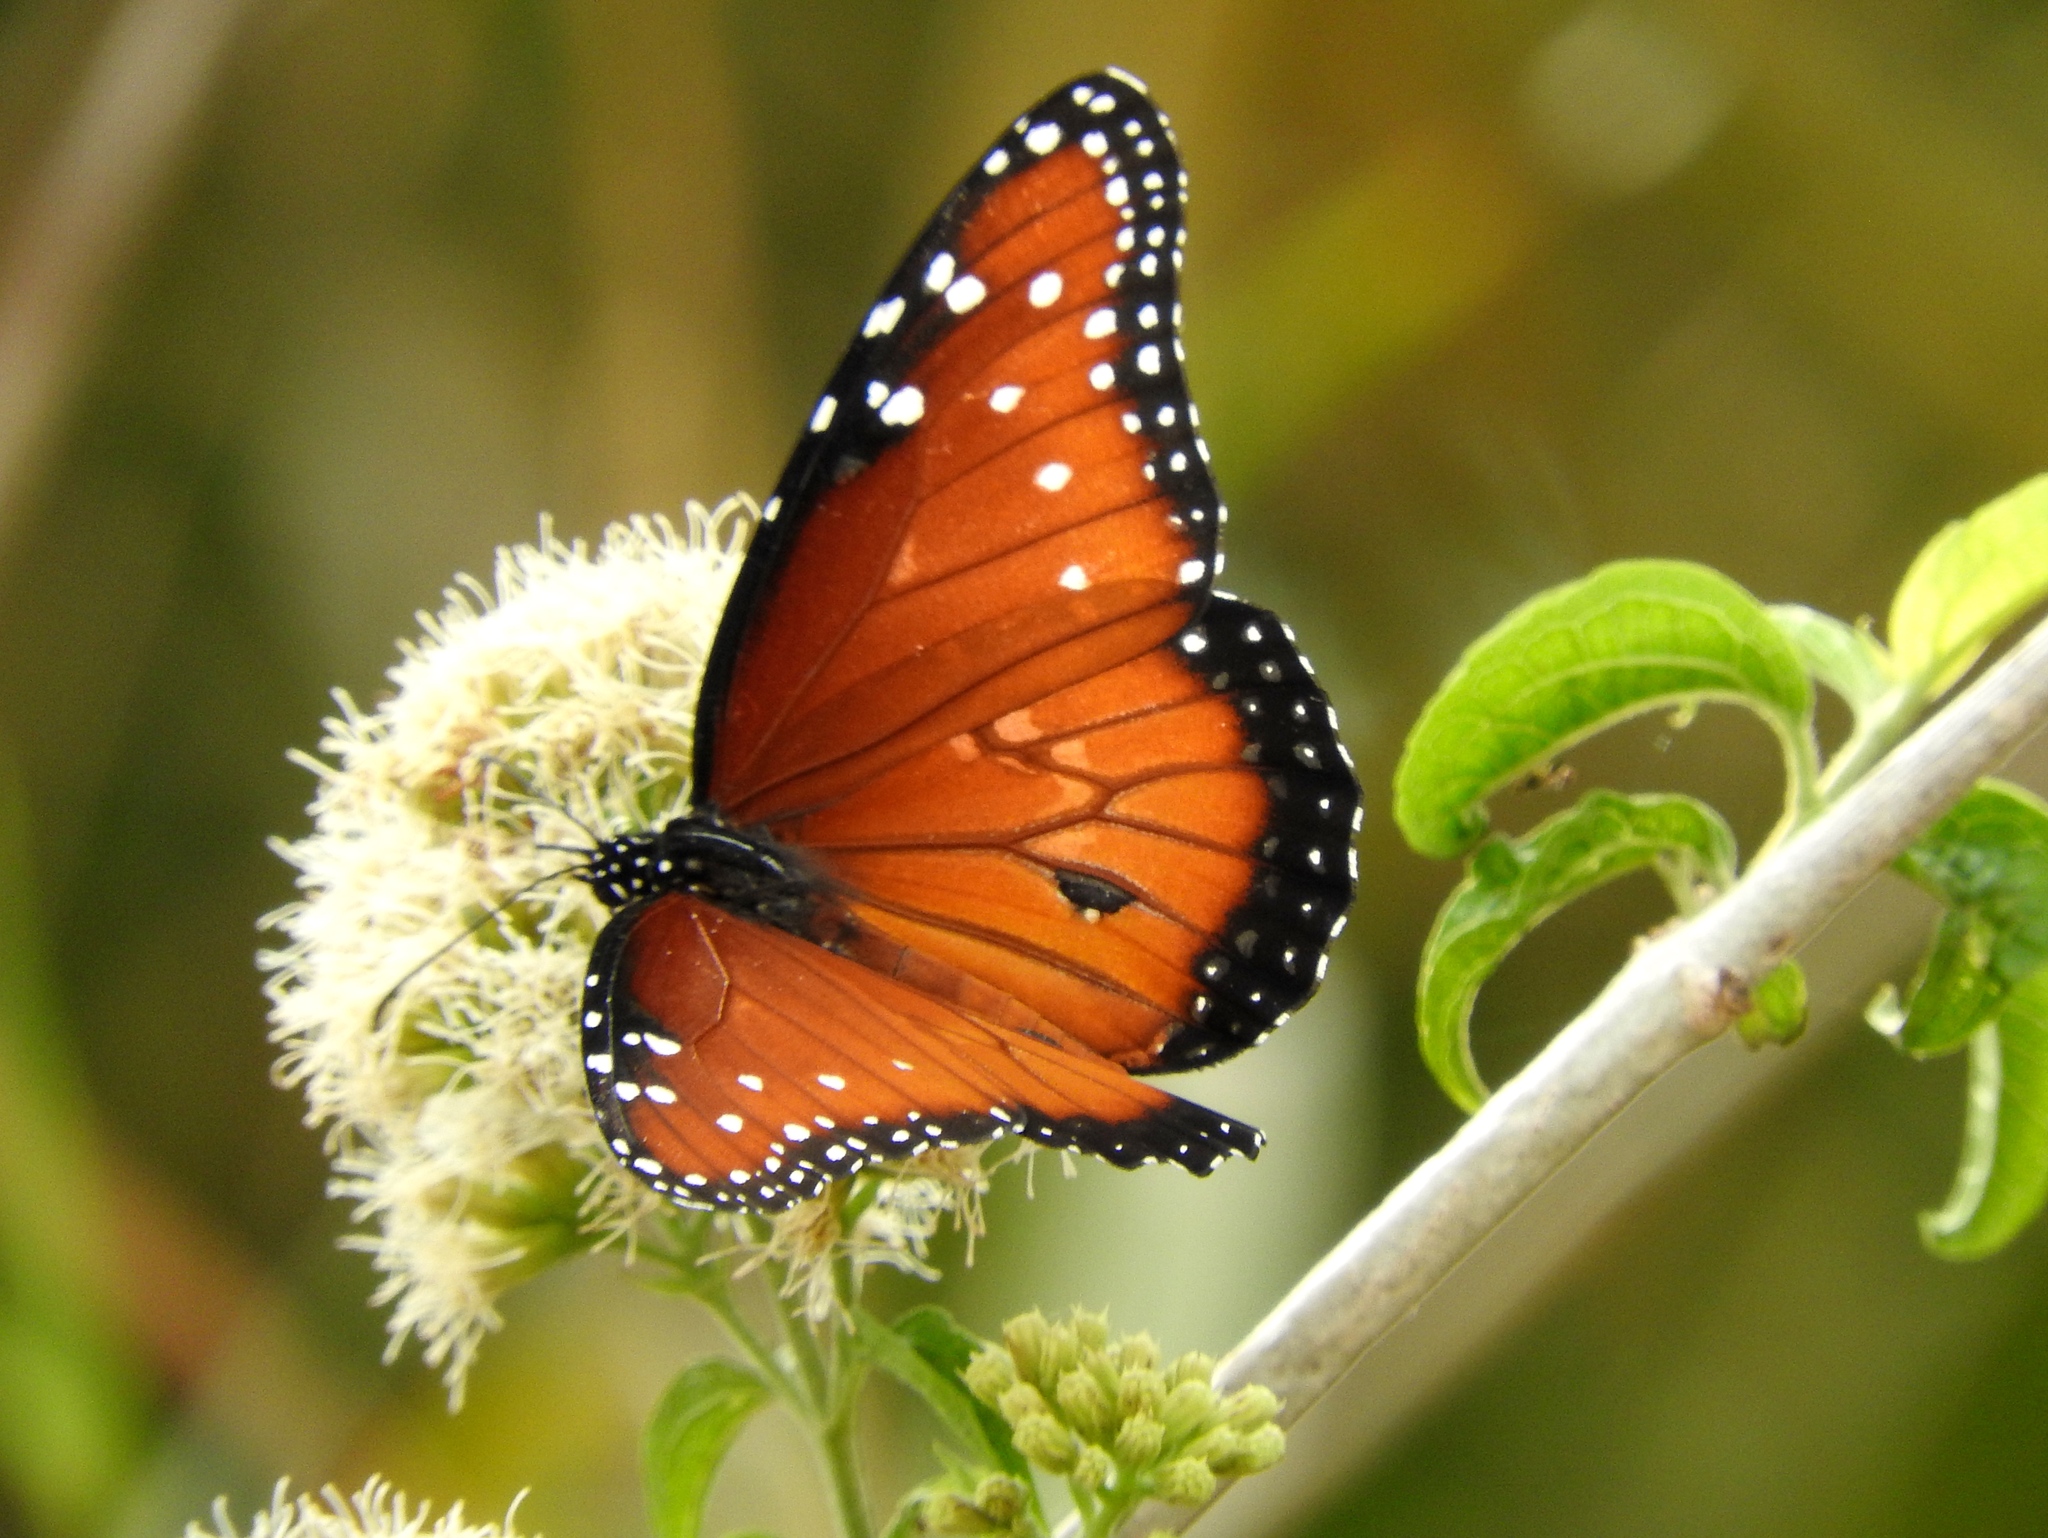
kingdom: Animalia
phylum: Arthropoda
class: Insecta
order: Lepidoptera
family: Nymphalidae
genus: Danaus
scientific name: Danaus gilippus
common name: Queen
